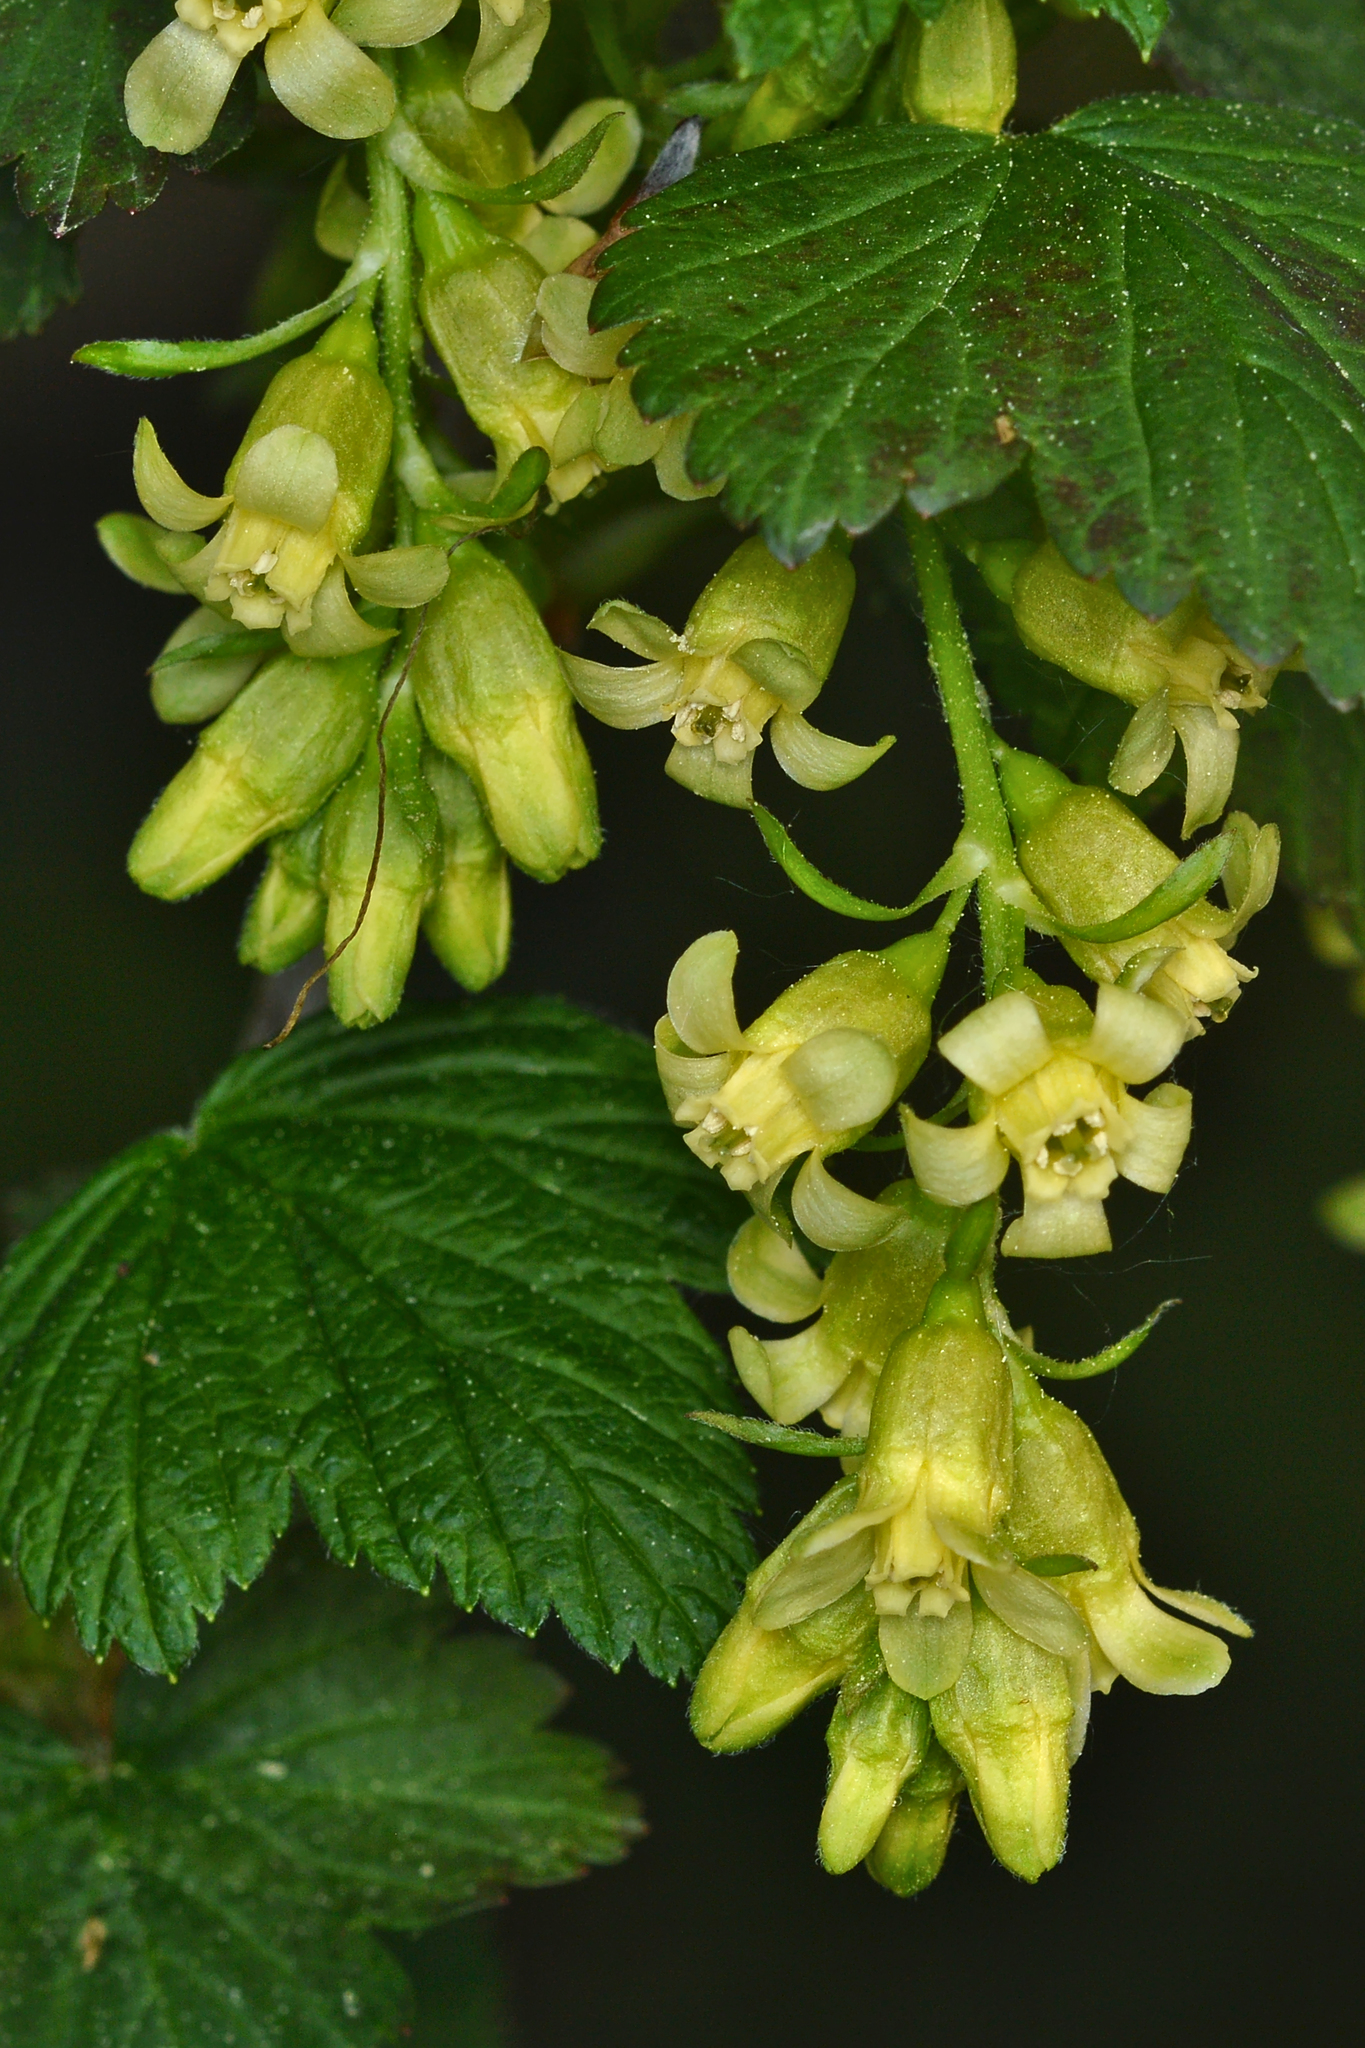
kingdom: Plantae
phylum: Tracheophyta
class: Magnoliopsida
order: Saxifragales
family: Grossulariaceae
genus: Ribes
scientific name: Ribes americanum
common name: American black currant
